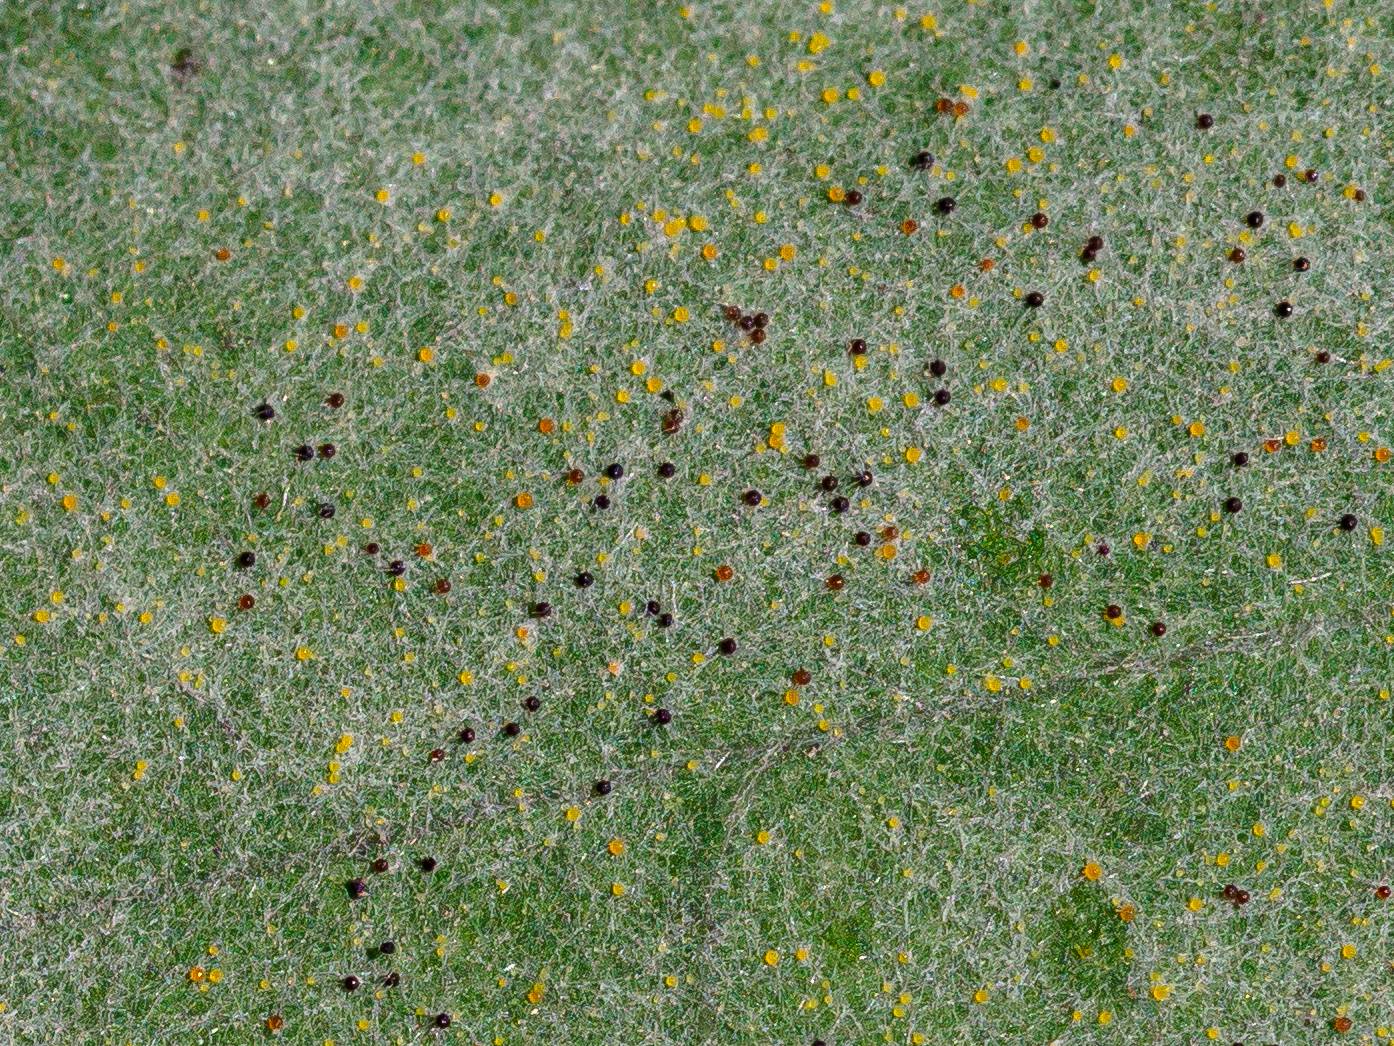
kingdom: Fungi
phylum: Ascomycota
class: Leotiomycetes
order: Helotiales
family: Erysiphaceae
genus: Erysiphe
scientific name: Erysiphe pseudacaciae
